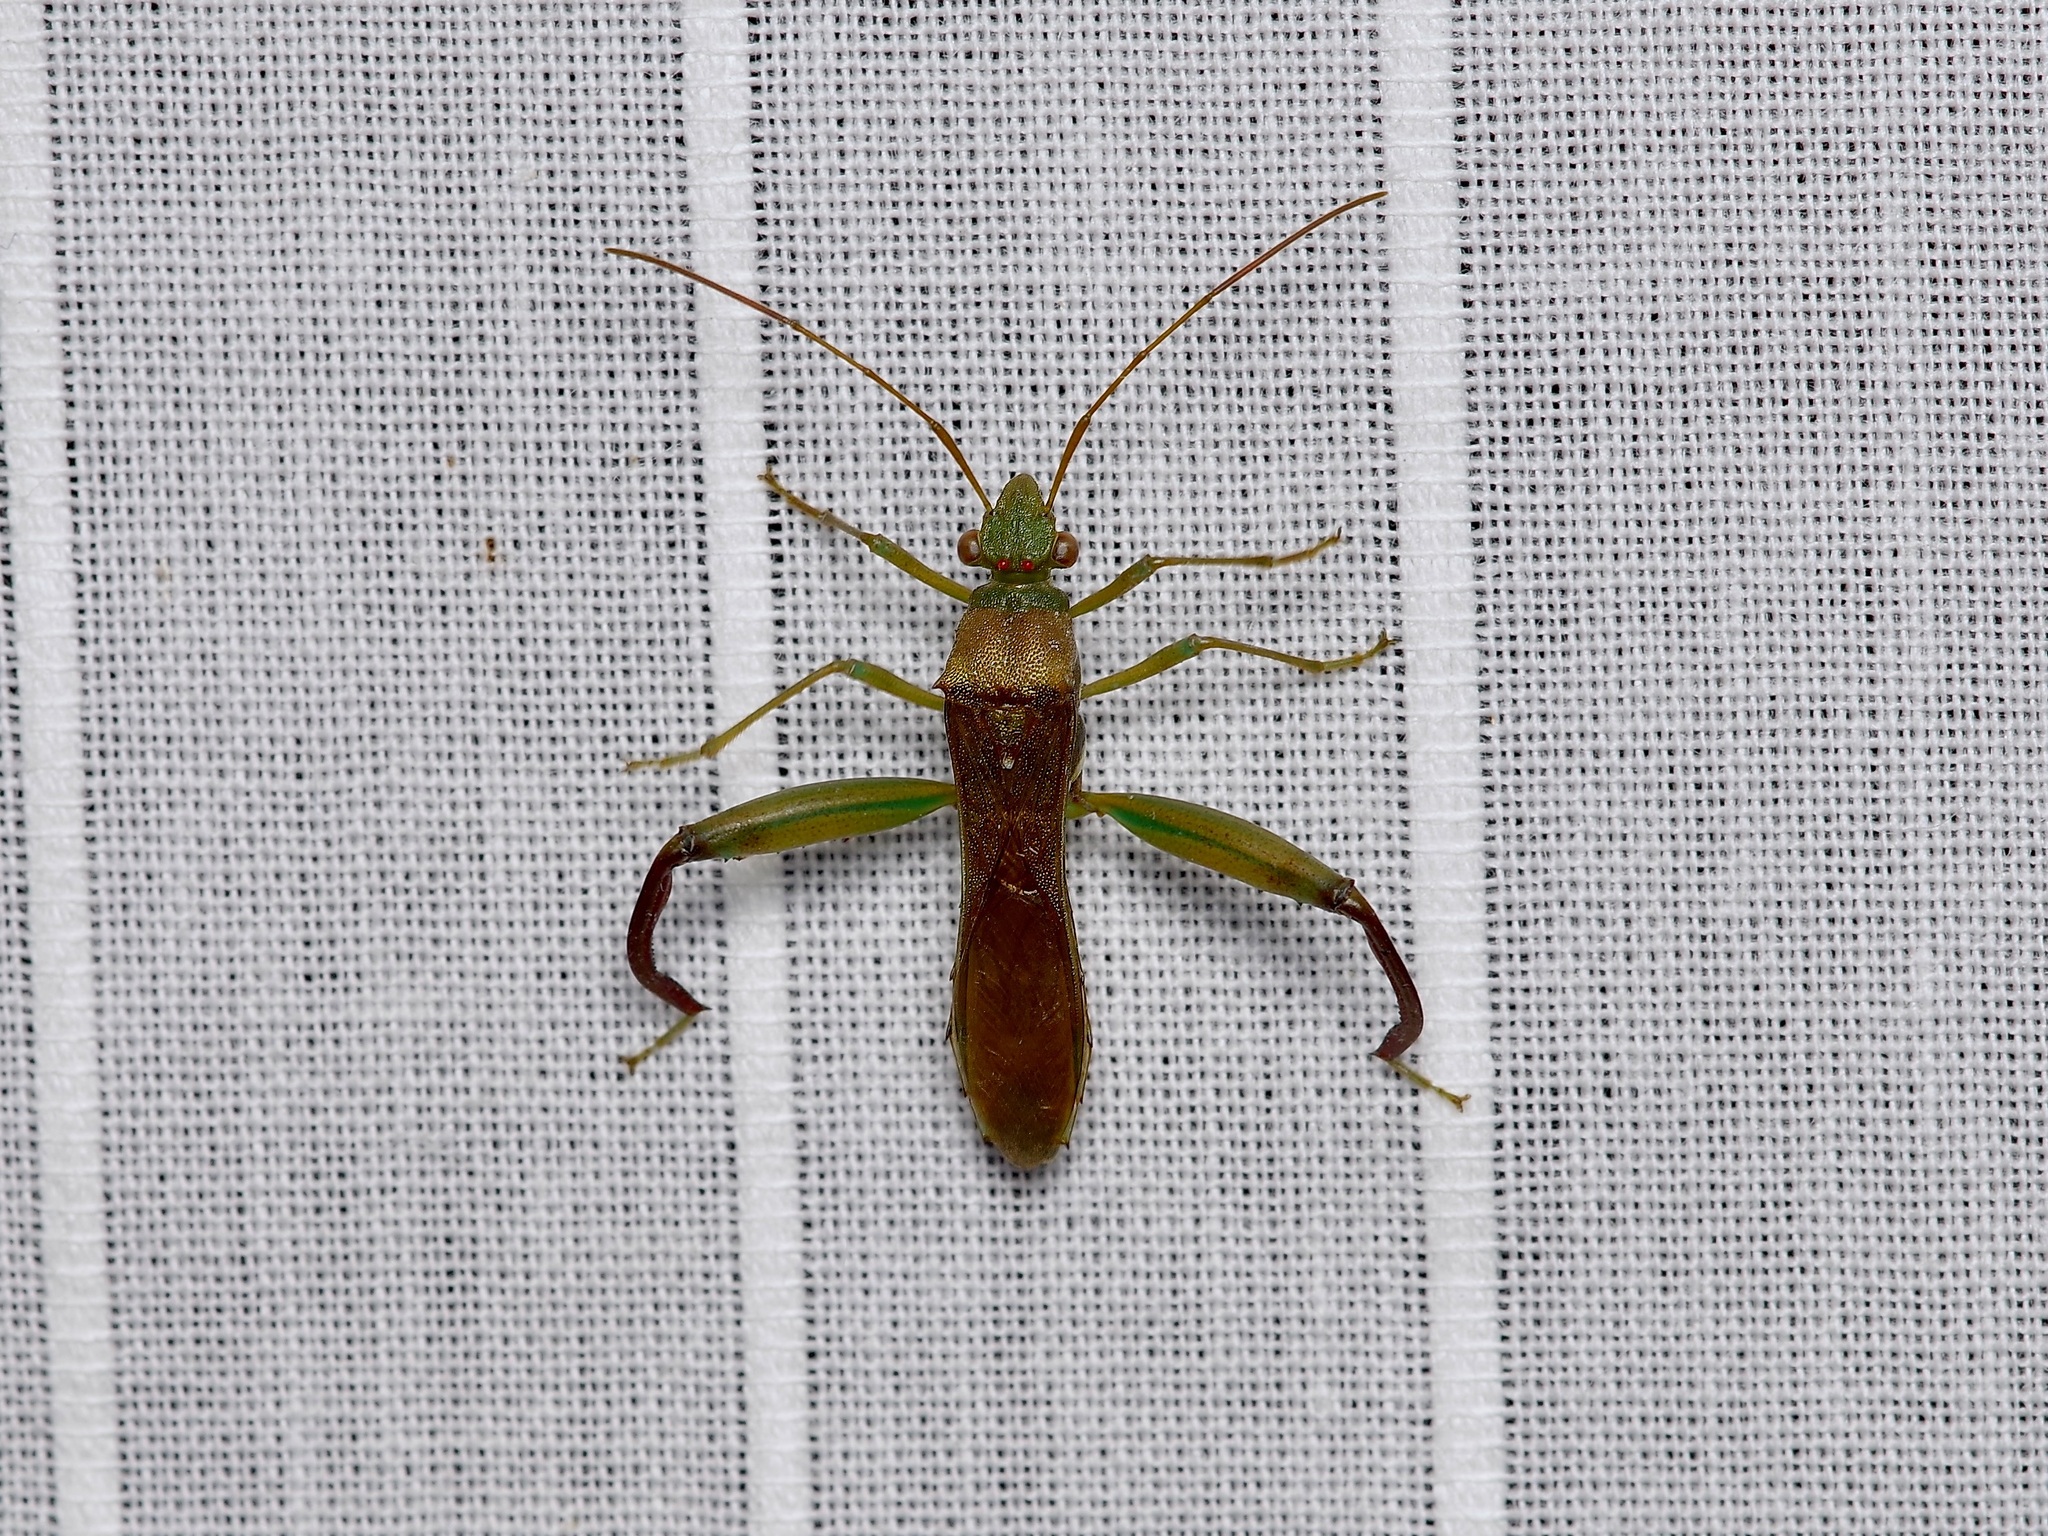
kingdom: Animalia
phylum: Arthropoda
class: Insecta
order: Hemiptera
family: Alydidae
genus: Hyalymenus
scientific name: Hyalymenus tarsatus
